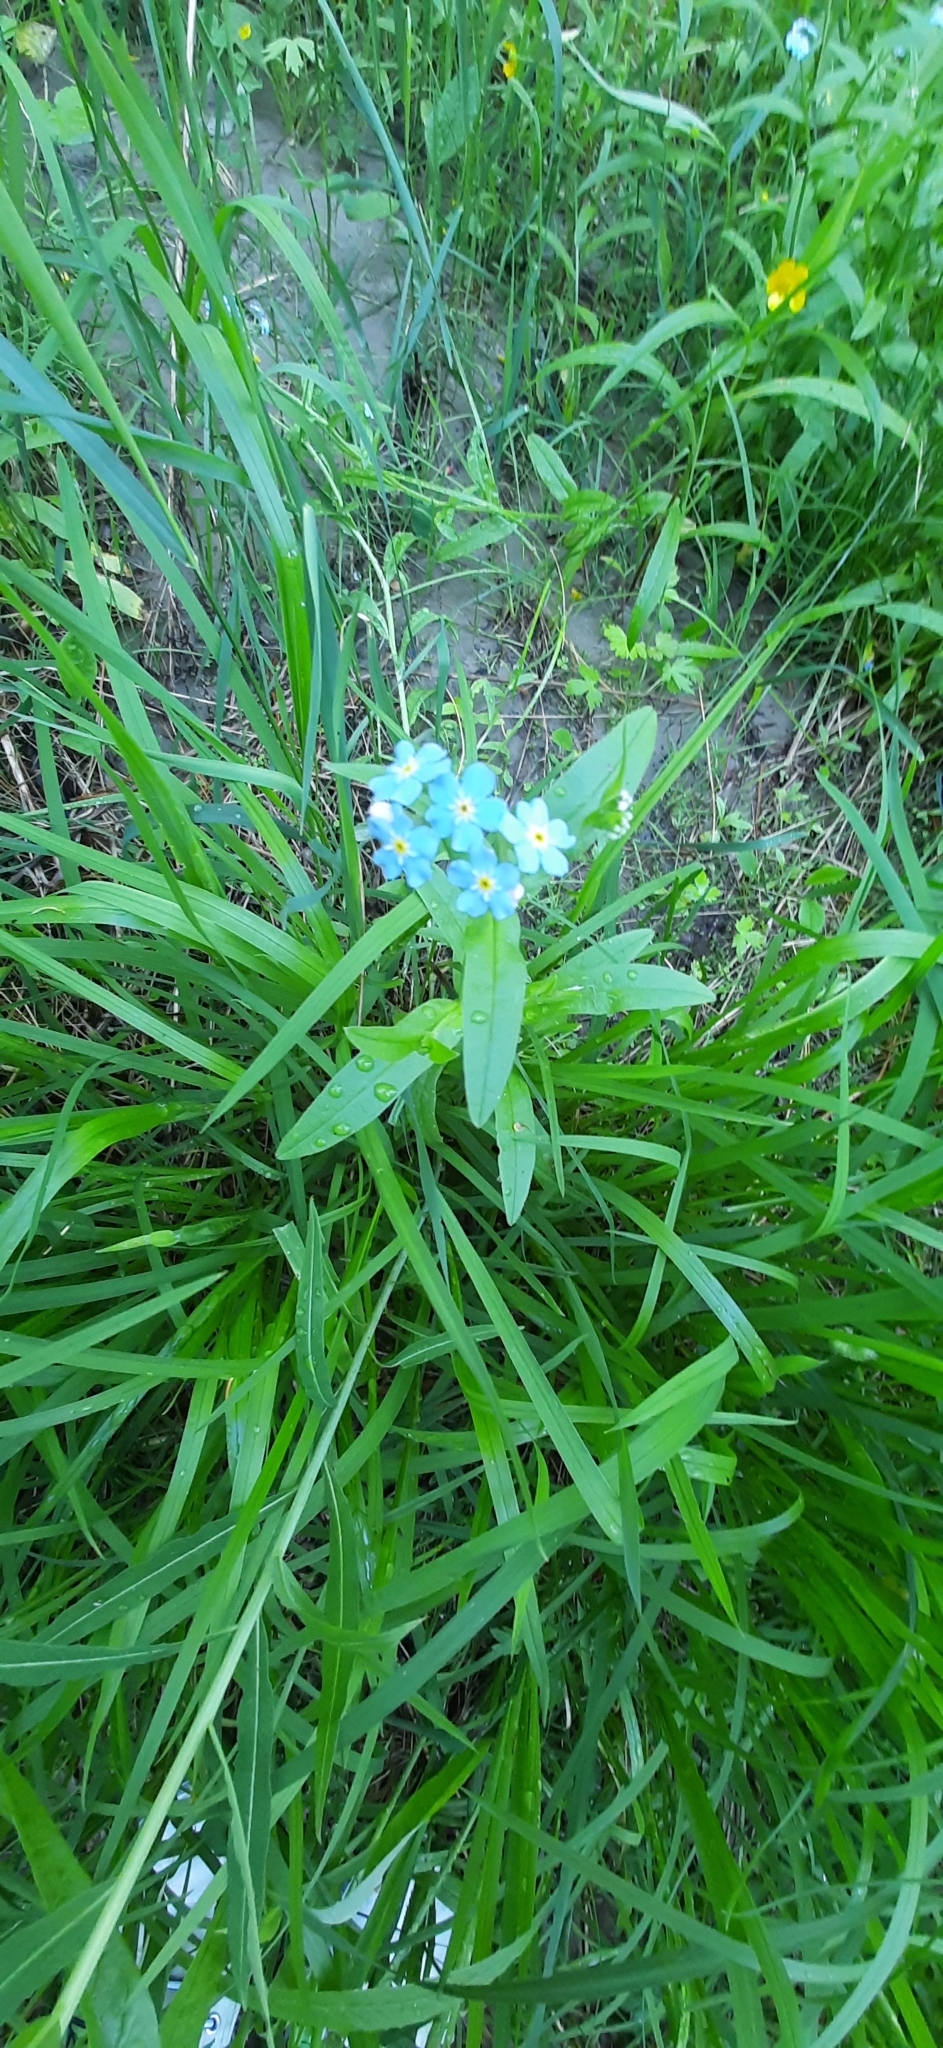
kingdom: Plantae
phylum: Tracheophyta
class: Magnoliopsida
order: Boraginales
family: Boraginaceae
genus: Myosotis
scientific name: Myosotis scorpioides
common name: Water forget-me-not
